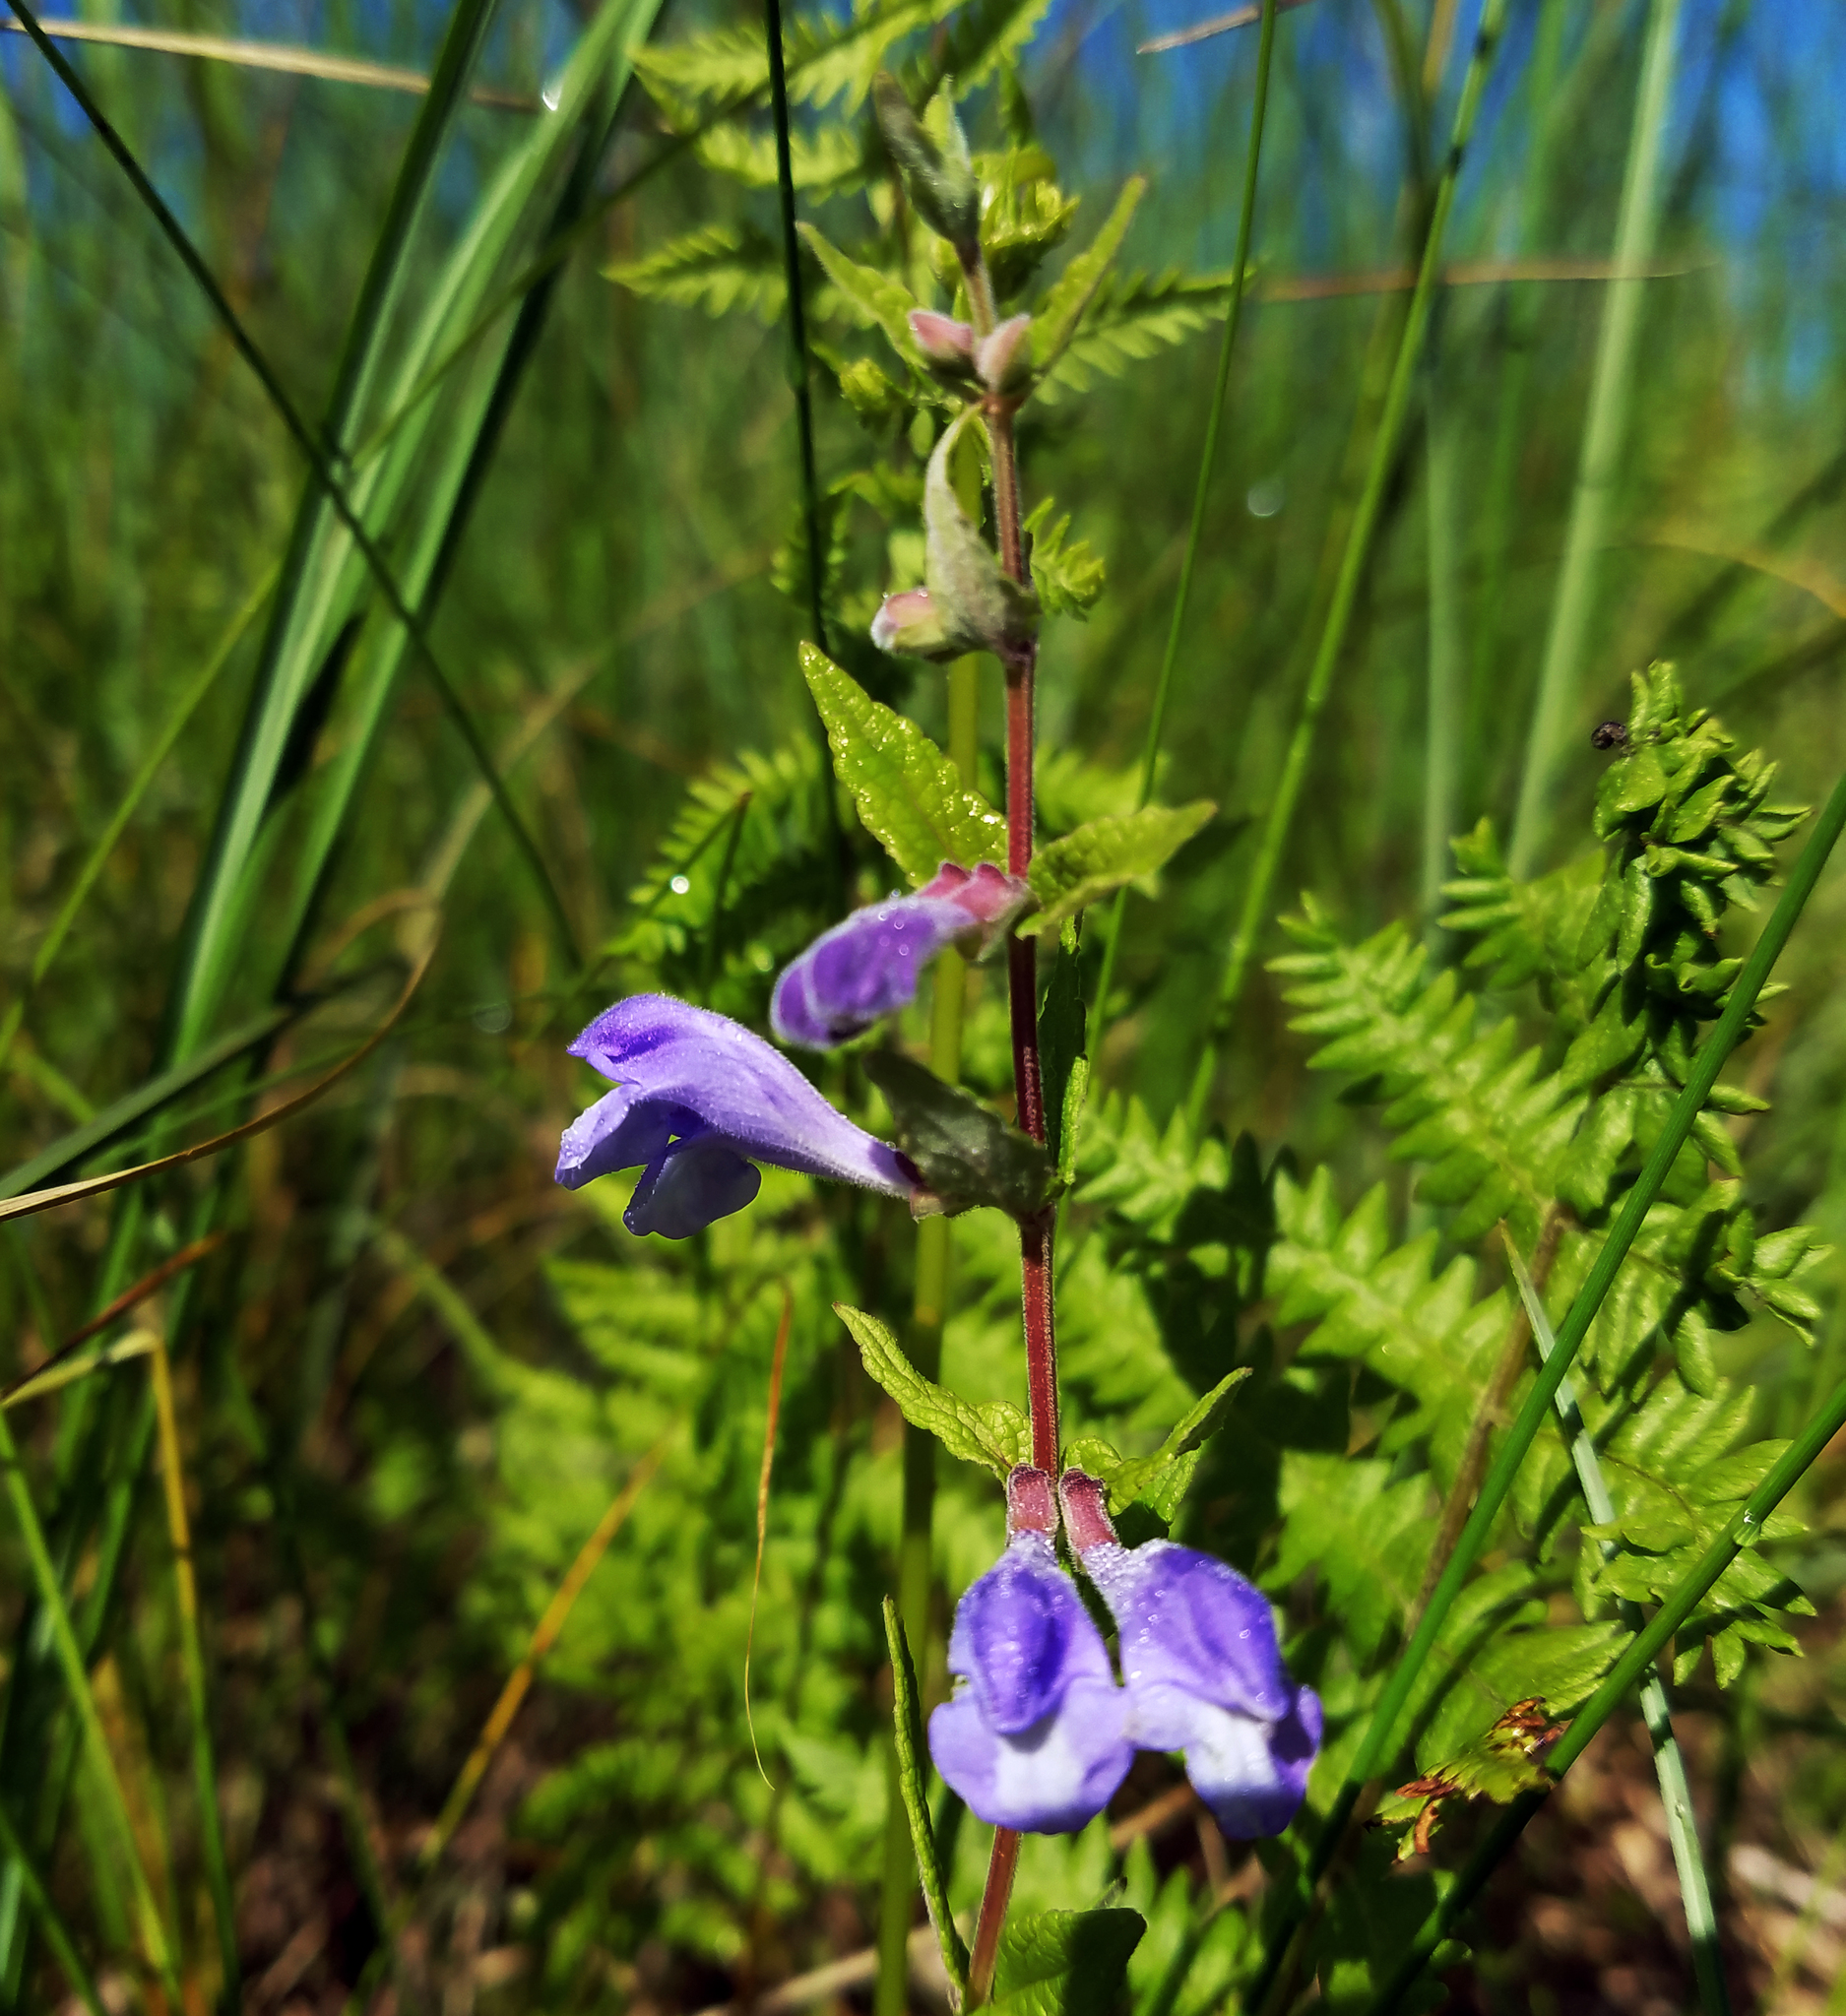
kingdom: Plantae
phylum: Tracheophyta
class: Magnoliopsida
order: Lamiales
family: Lamiaceae
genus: Scutellaria
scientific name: Scutellaria galericulata
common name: Skullcap
